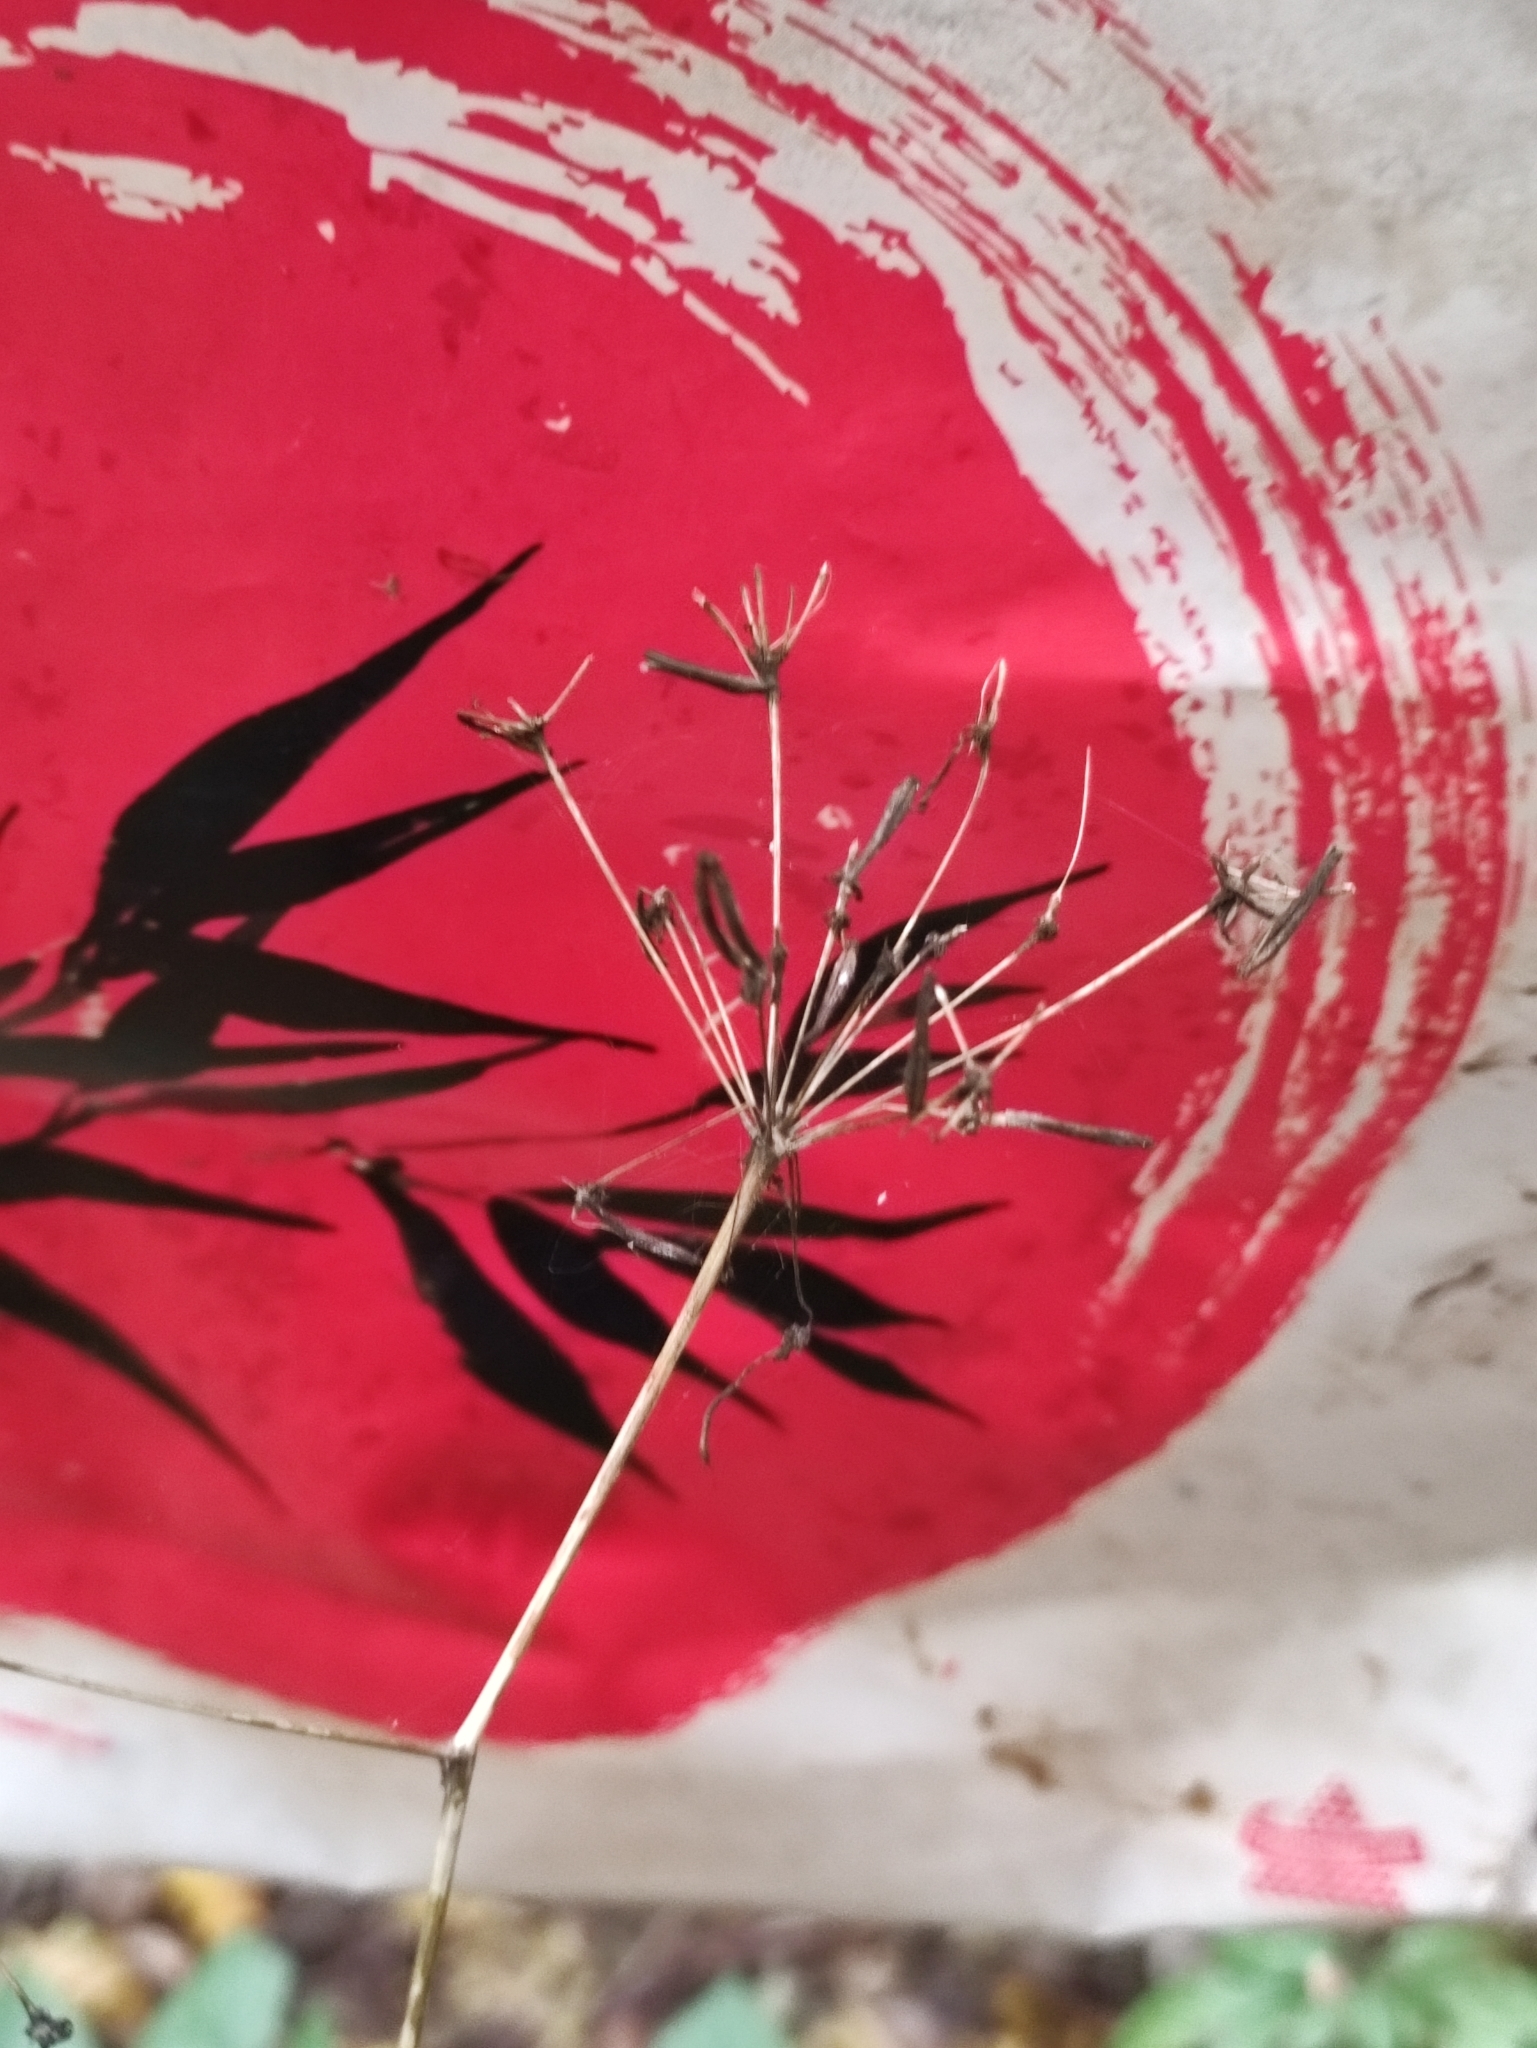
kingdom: Plantae
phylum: Tracheophyta
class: Magnoliopsida
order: Apiales
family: Apiaceae
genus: Chaerophyllum
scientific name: Chaerophyllum aromaticum
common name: Broadleaf chervil
